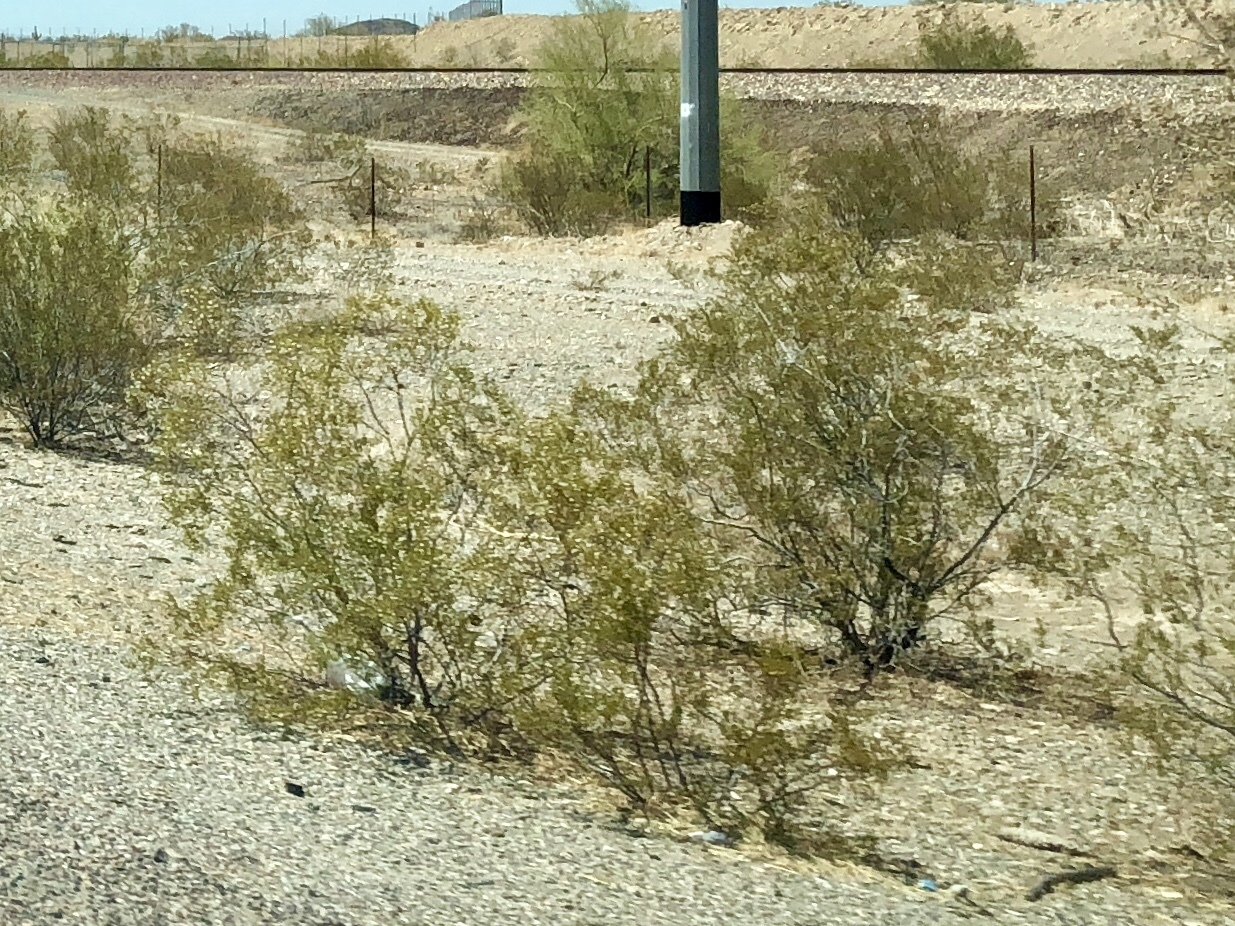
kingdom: Plantae
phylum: Tracheophyta
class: Magnoliopsida
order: Zygophyllales
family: Zygophyllaceae
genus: Larrea
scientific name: Larrea tridentata
